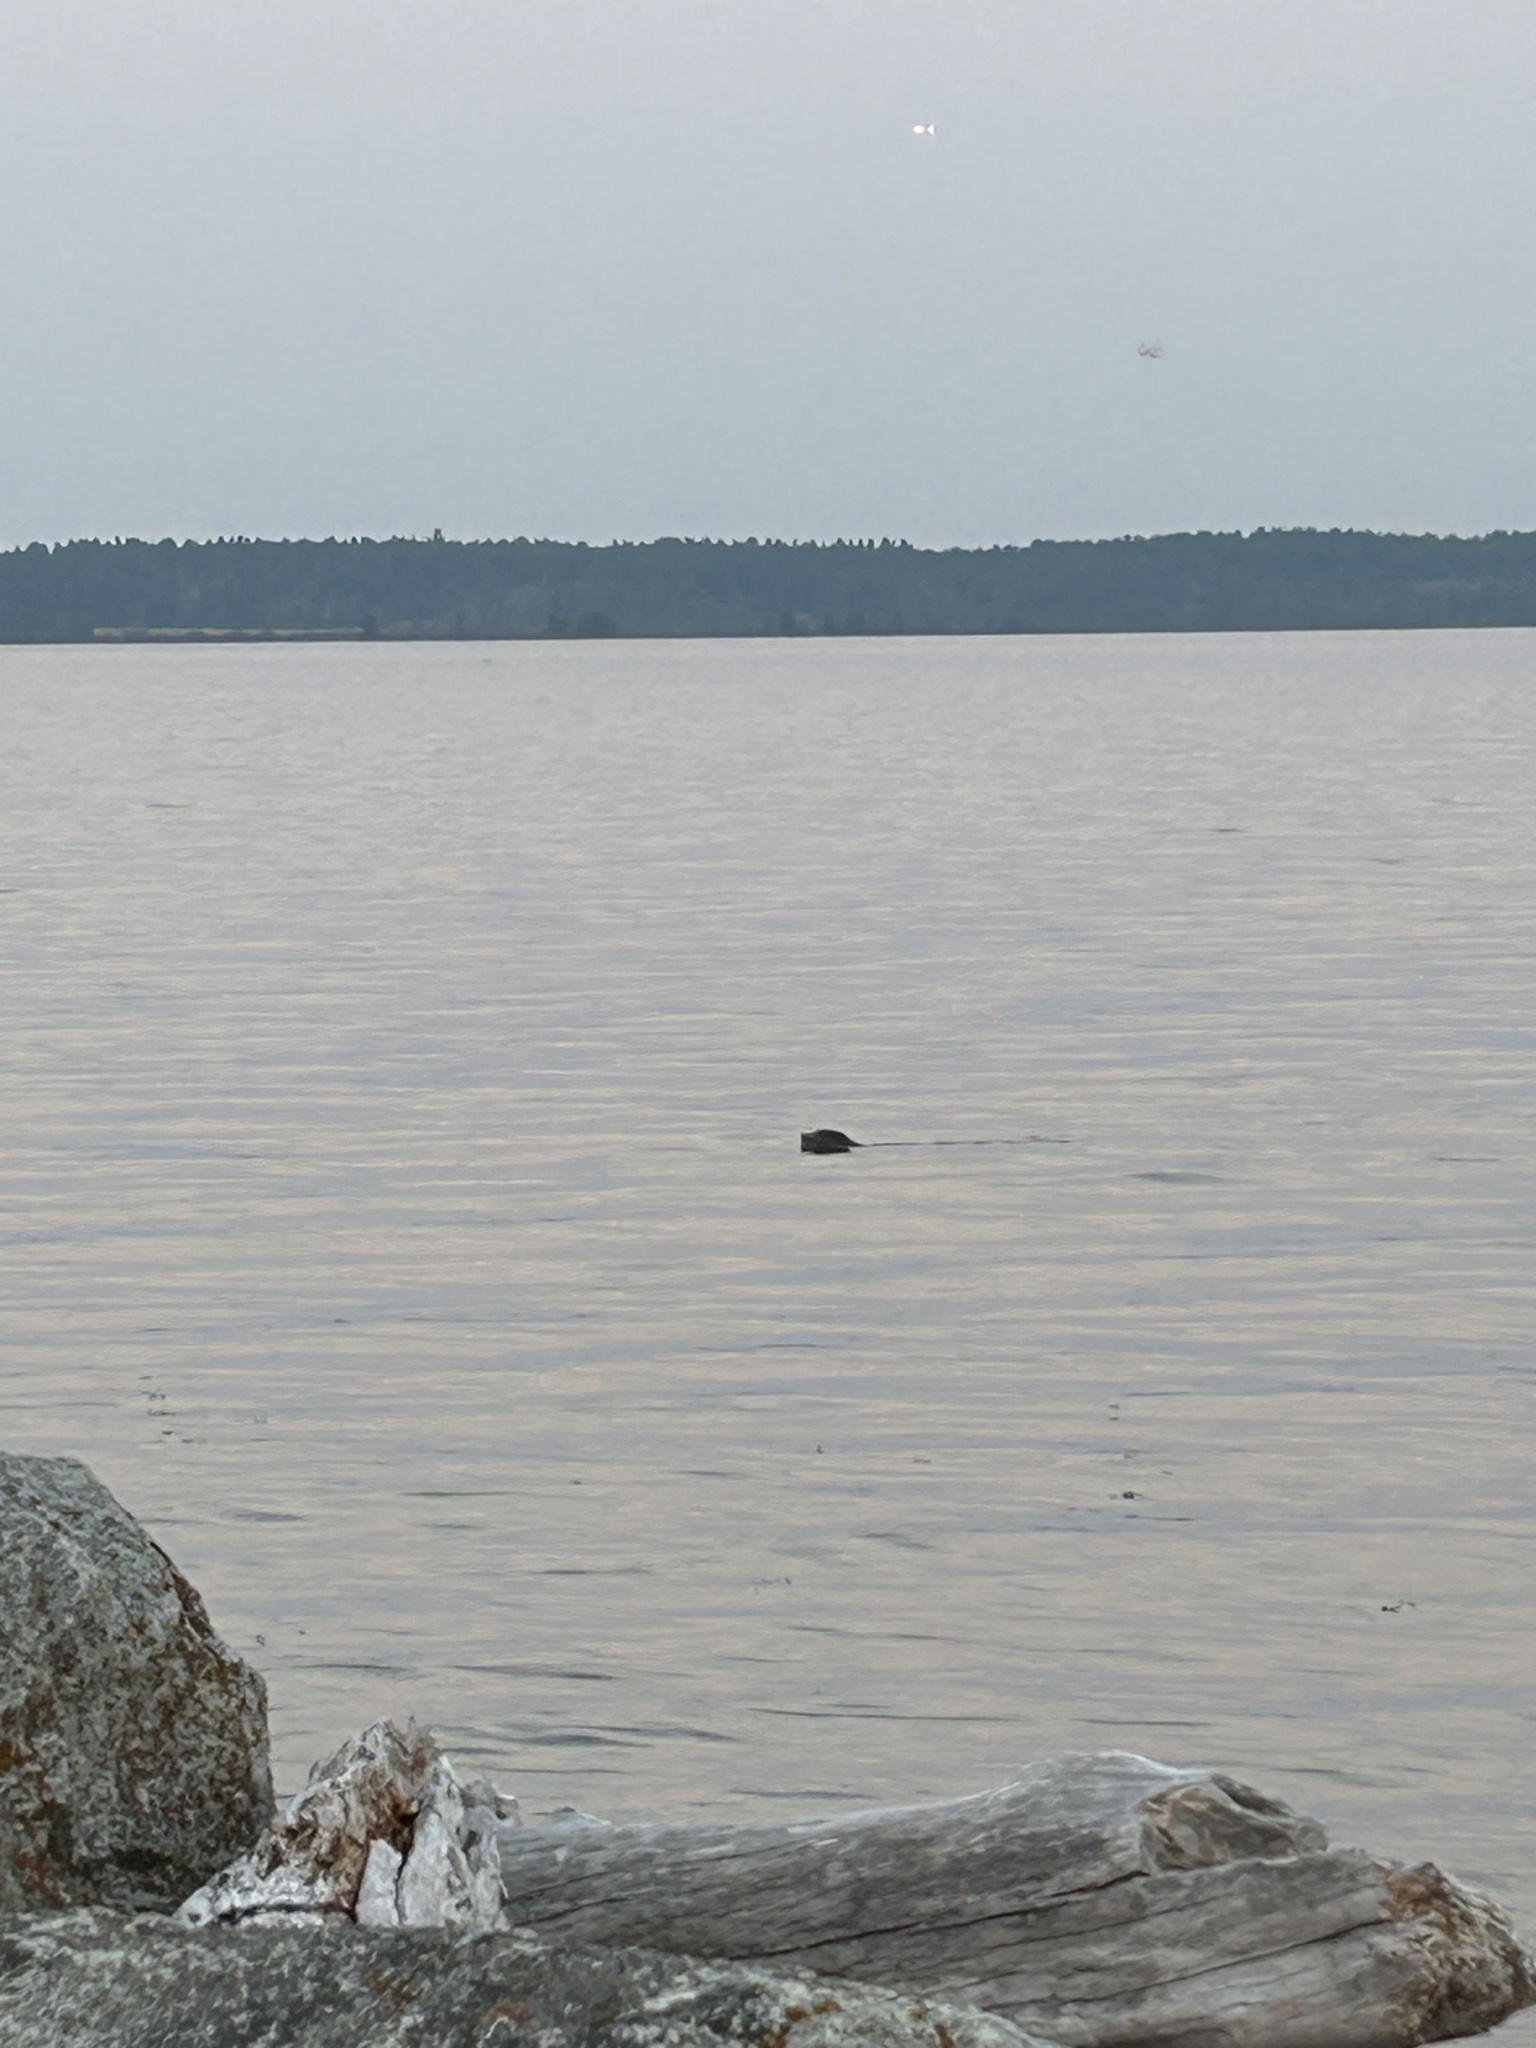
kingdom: Animalia
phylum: Chordata
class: Mammalia
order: Carnivora
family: Phocidae
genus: Phoca
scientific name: Phoca vitulina
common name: Harbor seal
